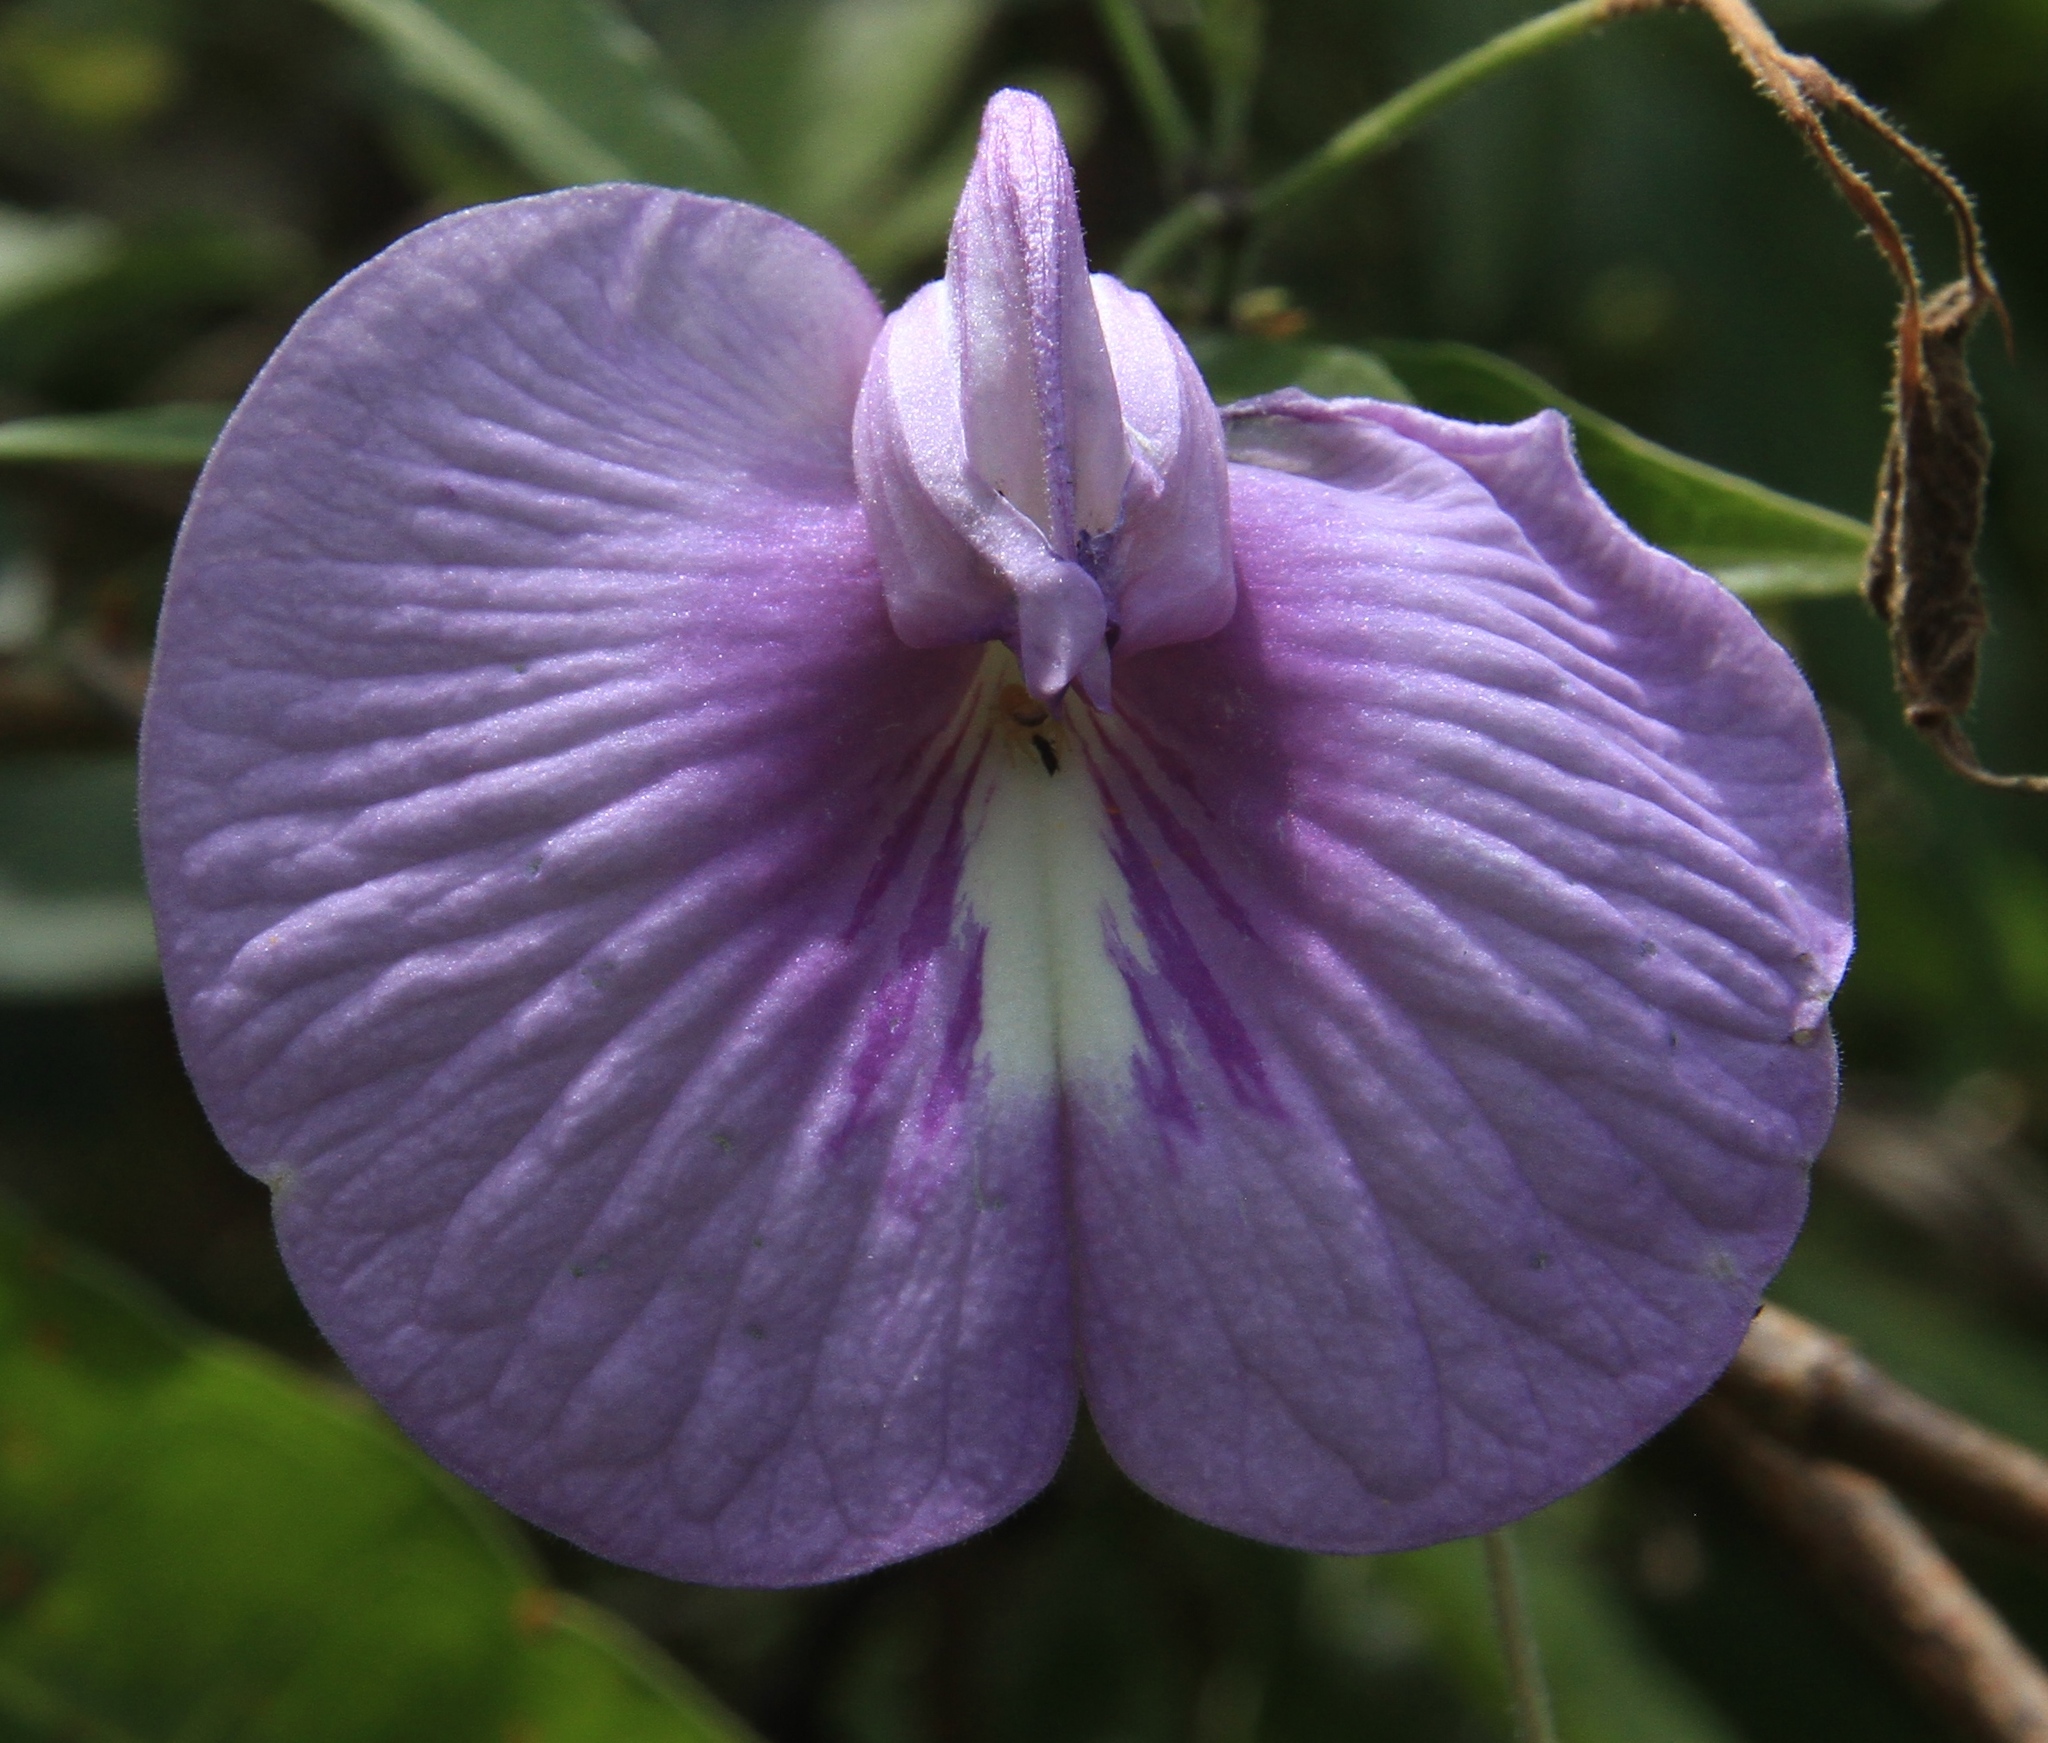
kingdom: Plantae
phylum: Tracheophyta
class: Magnoliopsida
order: Fabales
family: Fabaceae
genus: Centrosema
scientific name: Centrosema virginianum
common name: Butterfly-pea
